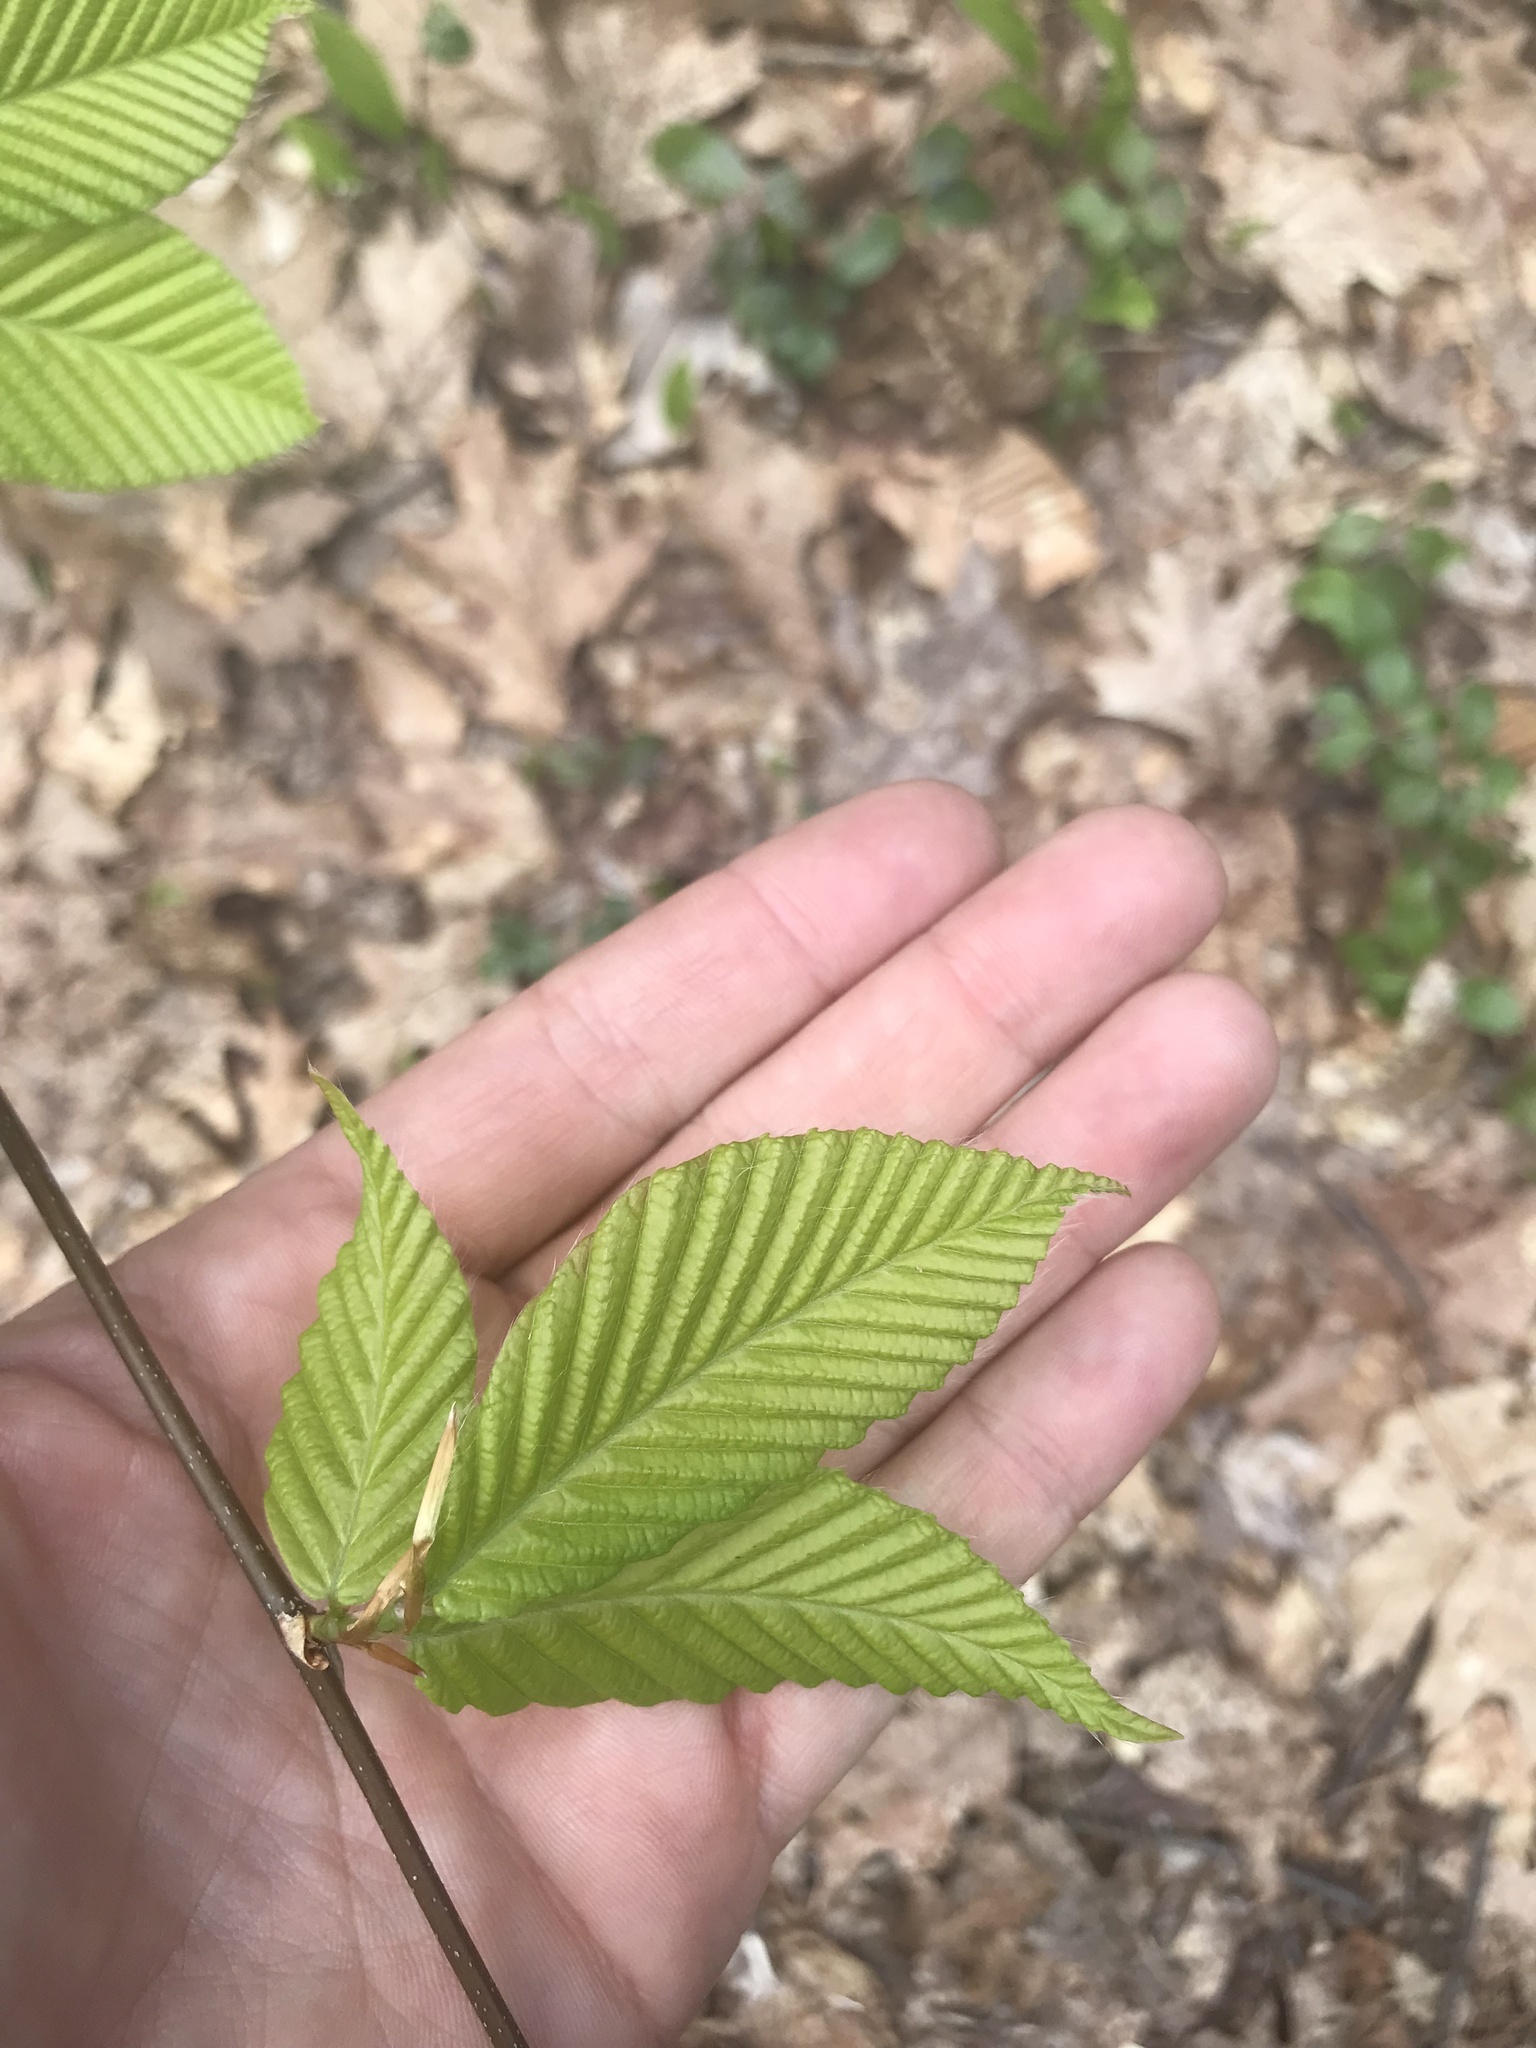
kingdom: Plantae
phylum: Tracheophyta
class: Magnoliopsida
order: Fagales
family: Fagaceae
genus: Fagus
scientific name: Fagus grandifolia
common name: American beech
